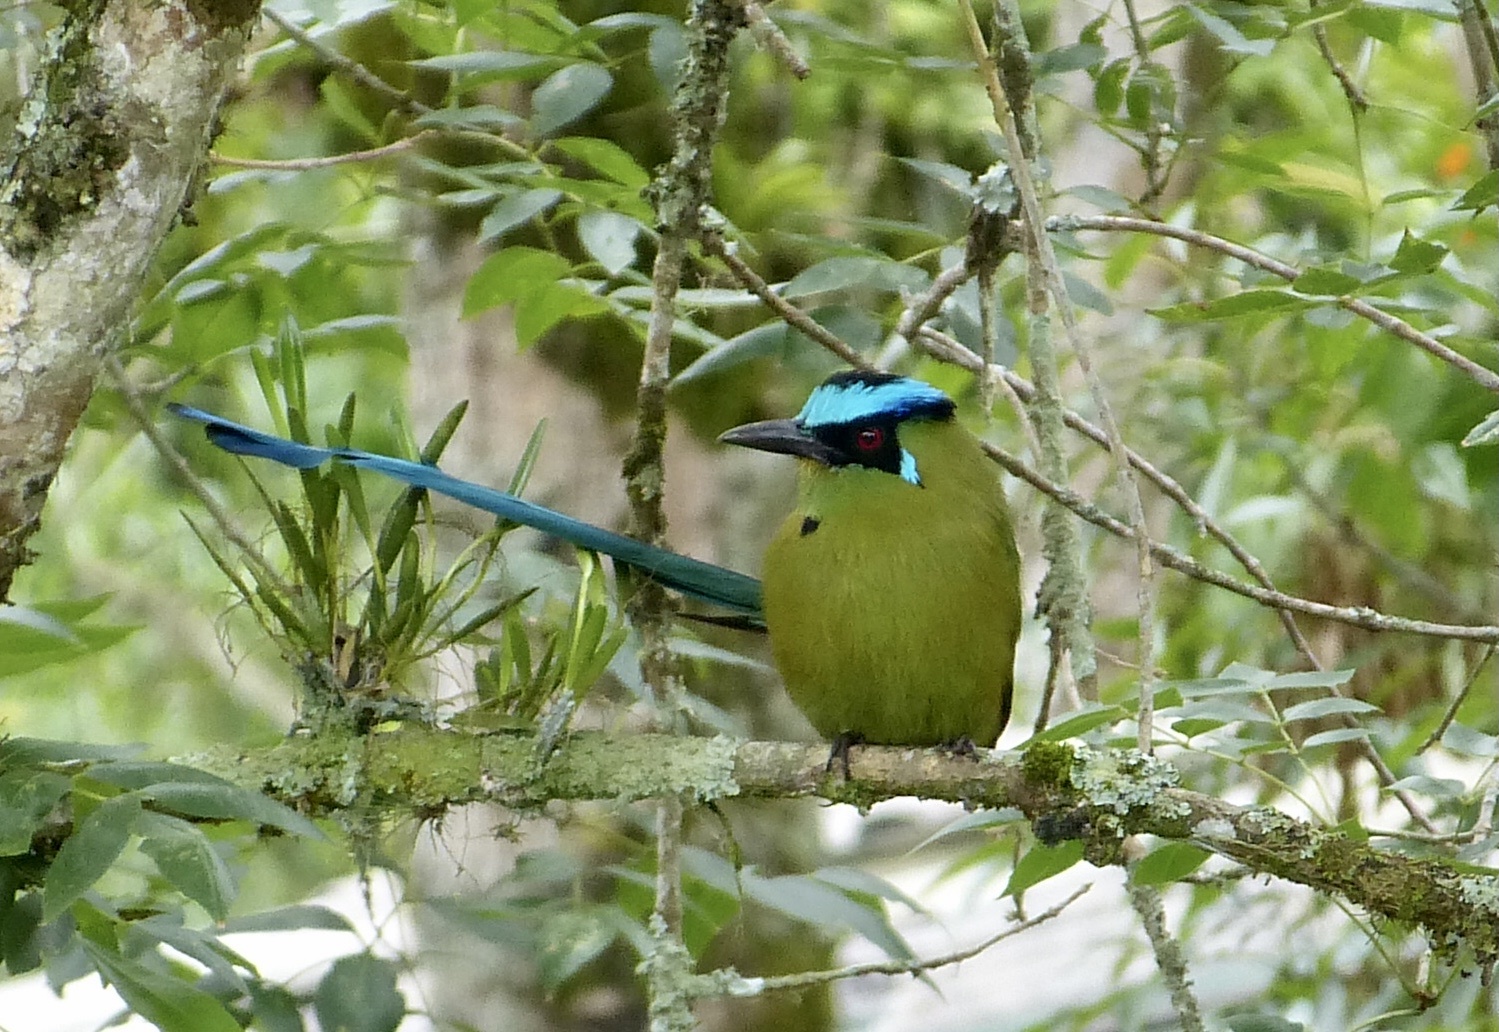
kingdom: Animalia
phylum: Chordata
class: Aves
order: Coraciiformes
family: Momotidae
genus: Momotus
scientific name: Momotus aequatorialis
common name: Andean motmot
